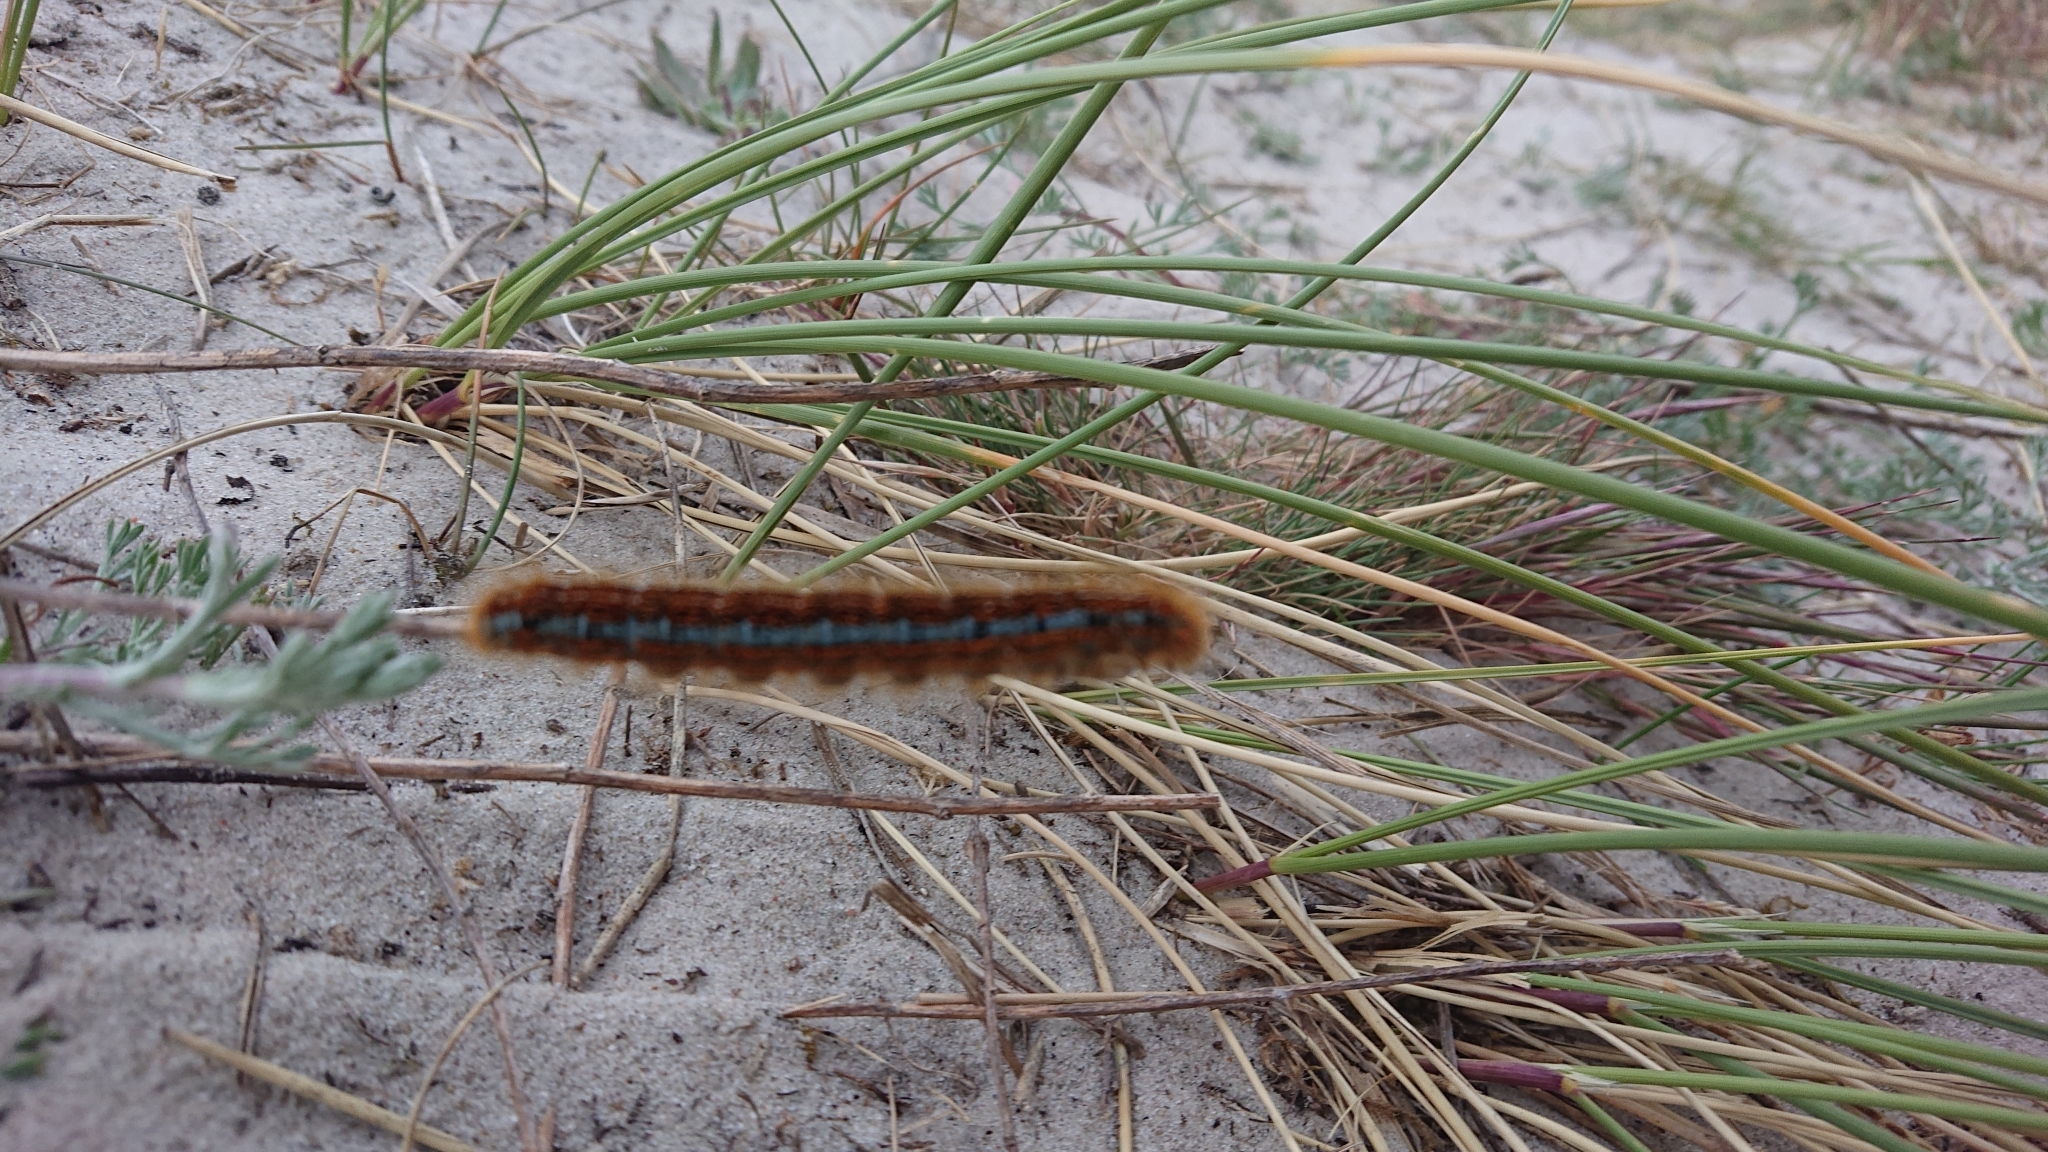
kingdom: Animalia
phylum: Arthropoda
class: Insecta
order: Lepidoptera
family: Lasiocampidae
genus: Malacosoma
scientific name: Malacosoma castrense
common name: Ground lackey
